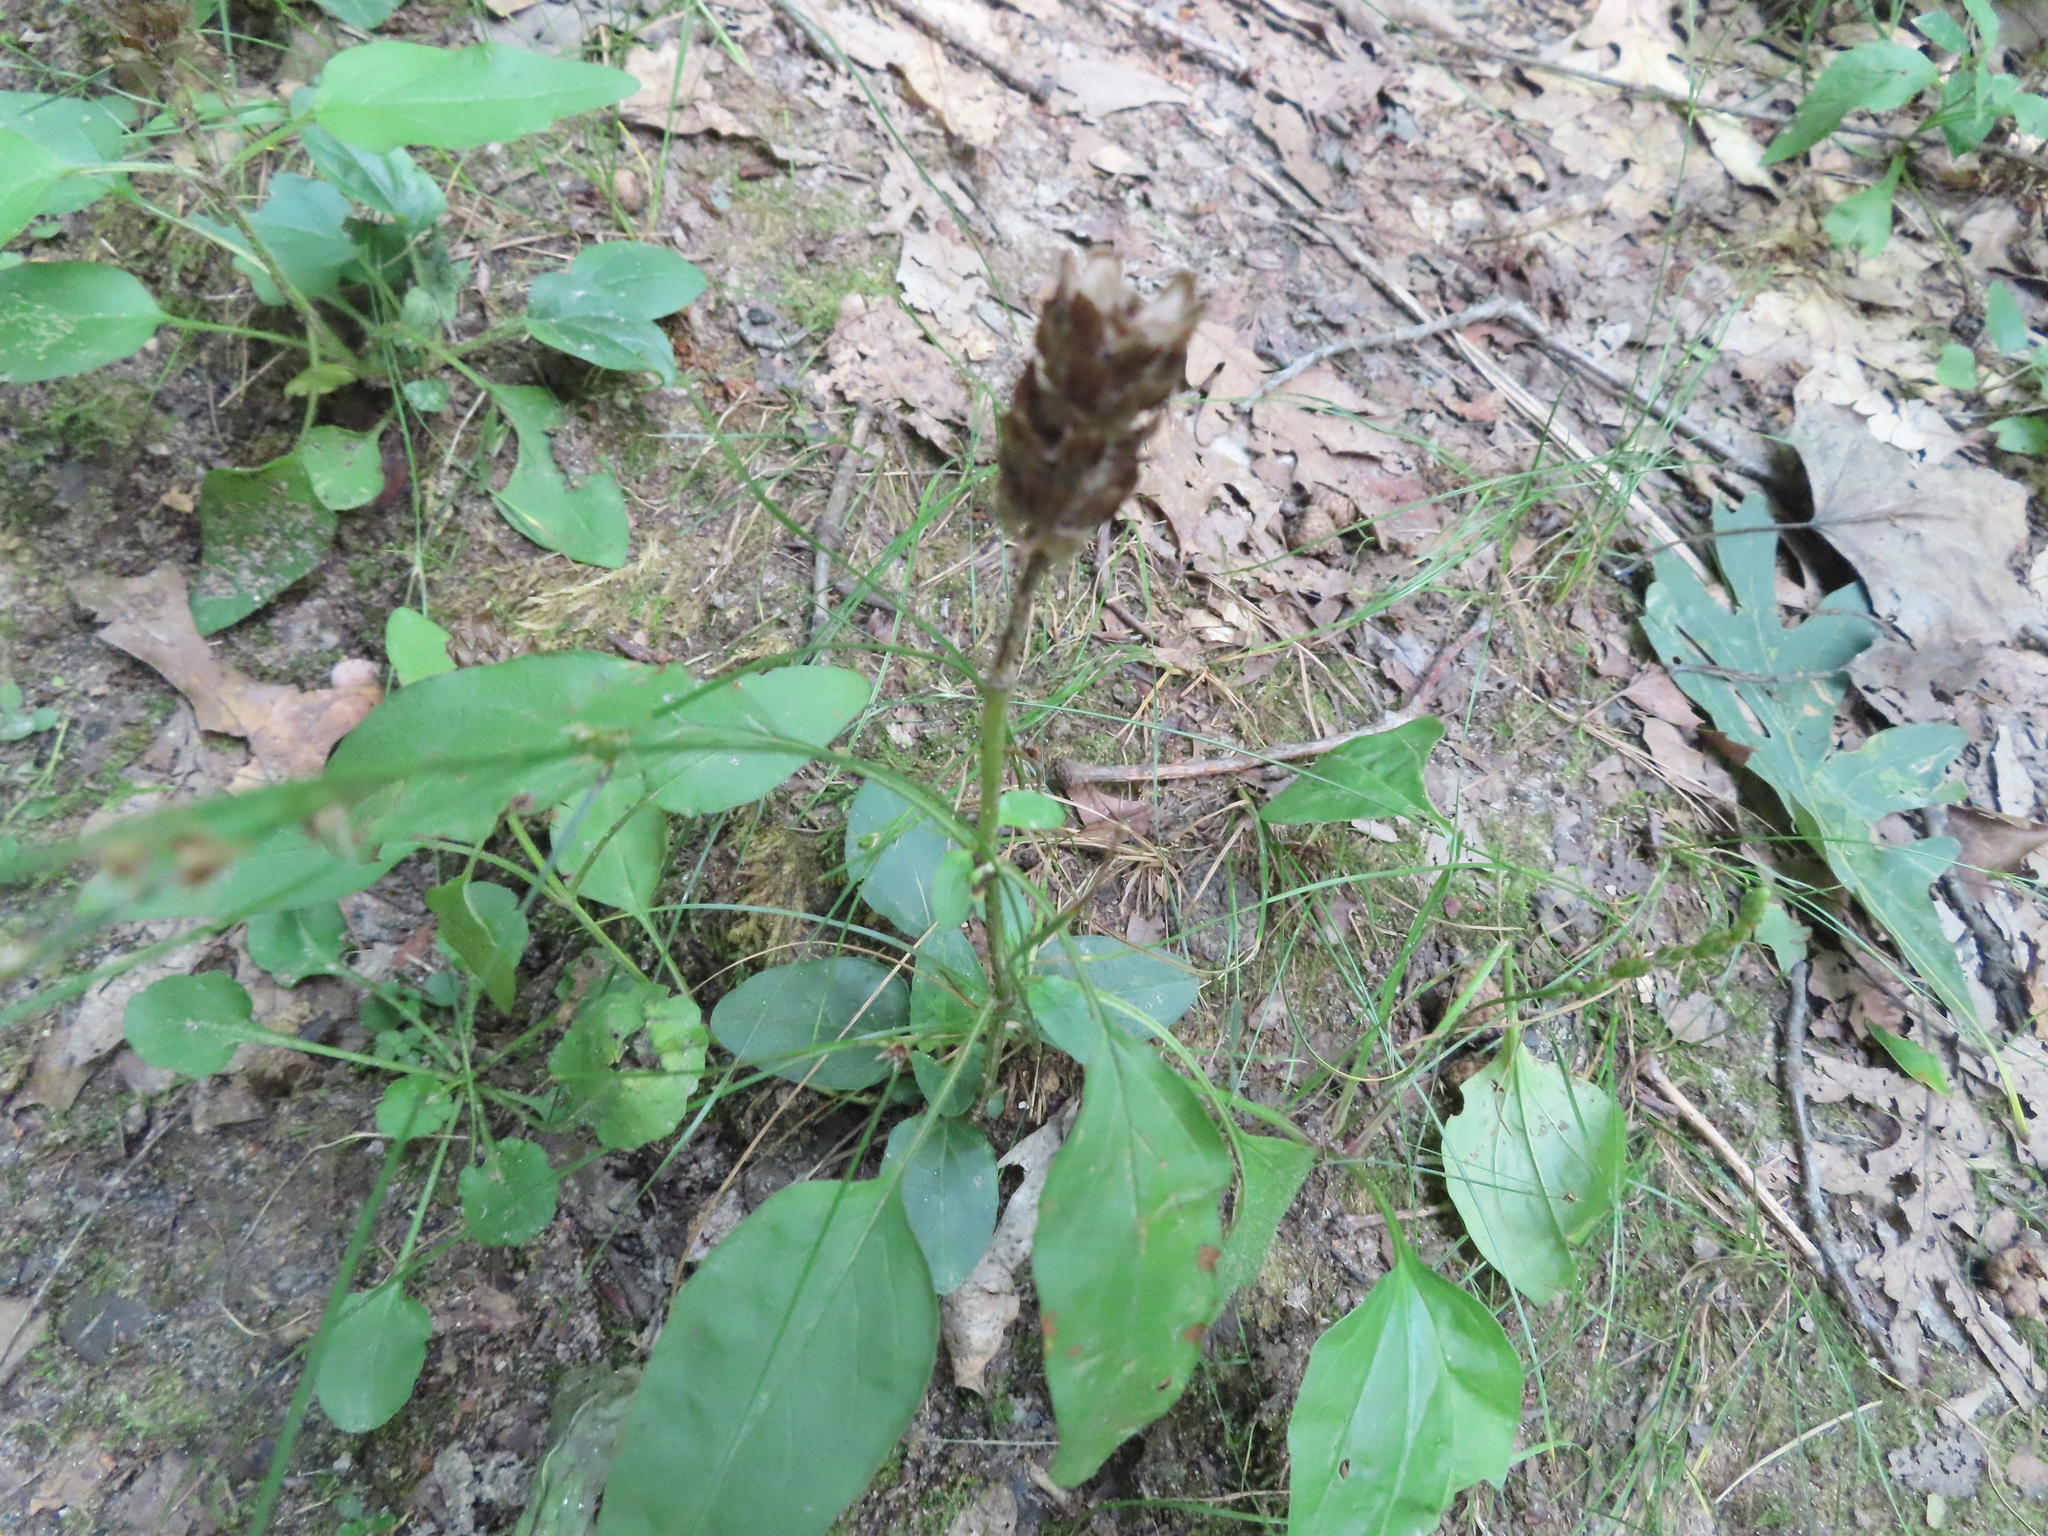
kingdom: Plantae
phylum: Tracheophyta
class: Magnoliopsida
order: Lamiales
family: Lamiaceae
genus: Prunella
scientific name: Prunella vulgaris
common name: Heal-all
